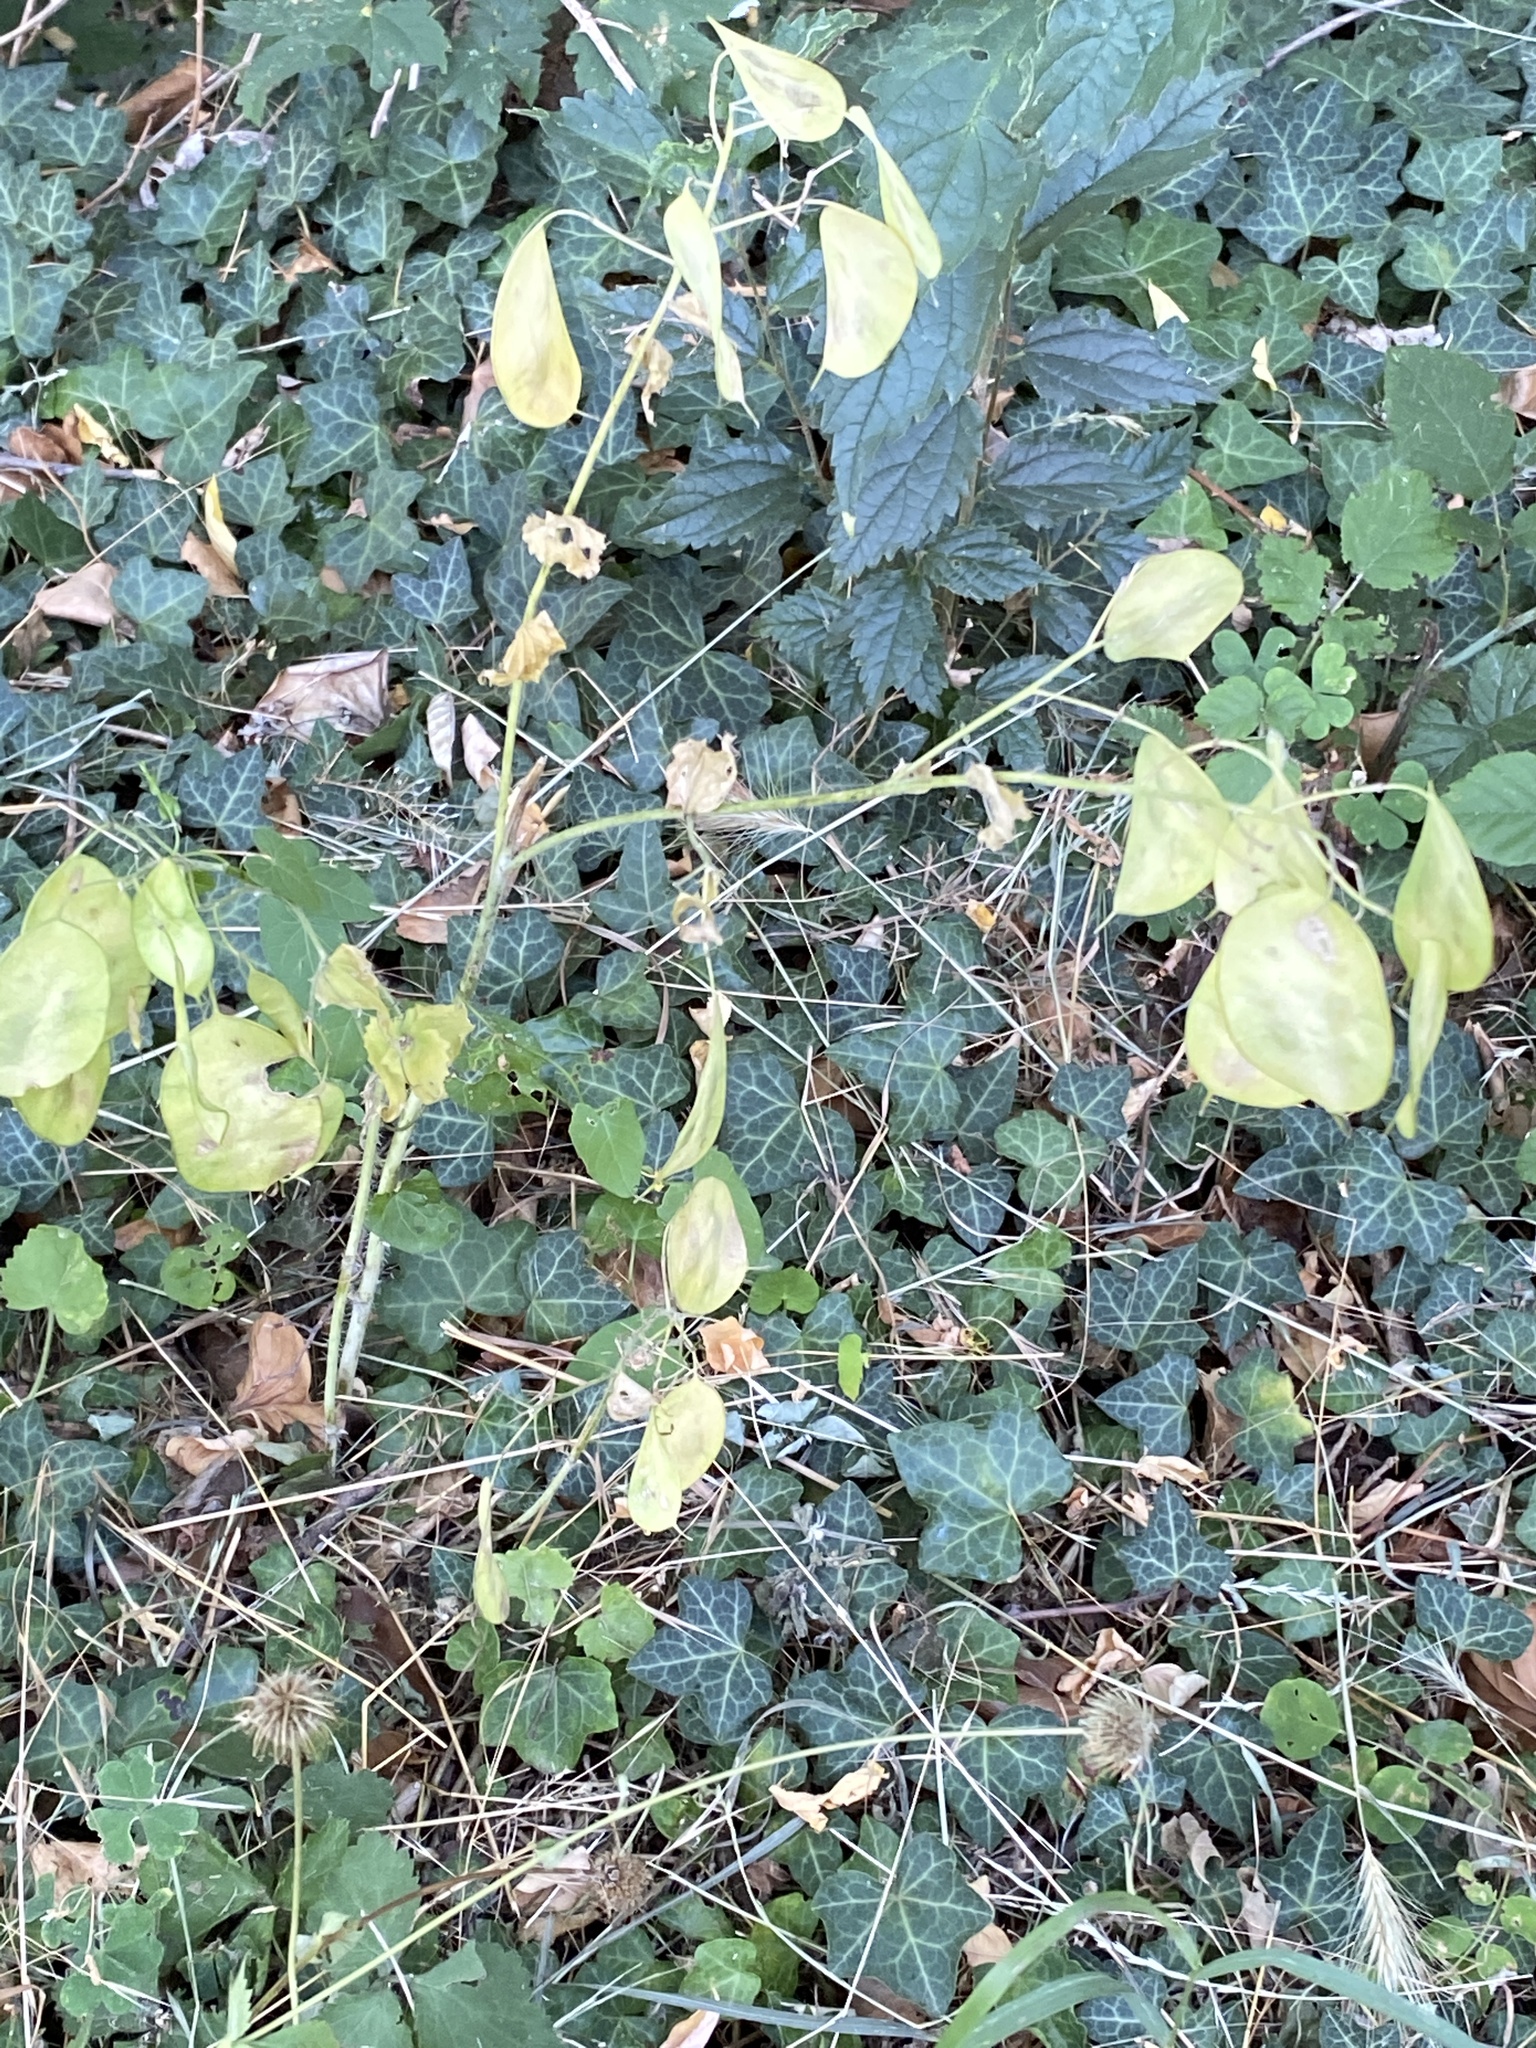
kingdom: Plantae
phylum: Tracheophyta
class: Magnoliopsida
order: Brassicales
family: Brassicaceae
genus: Lunaria
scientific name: Lunaria annua
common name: Honesty
